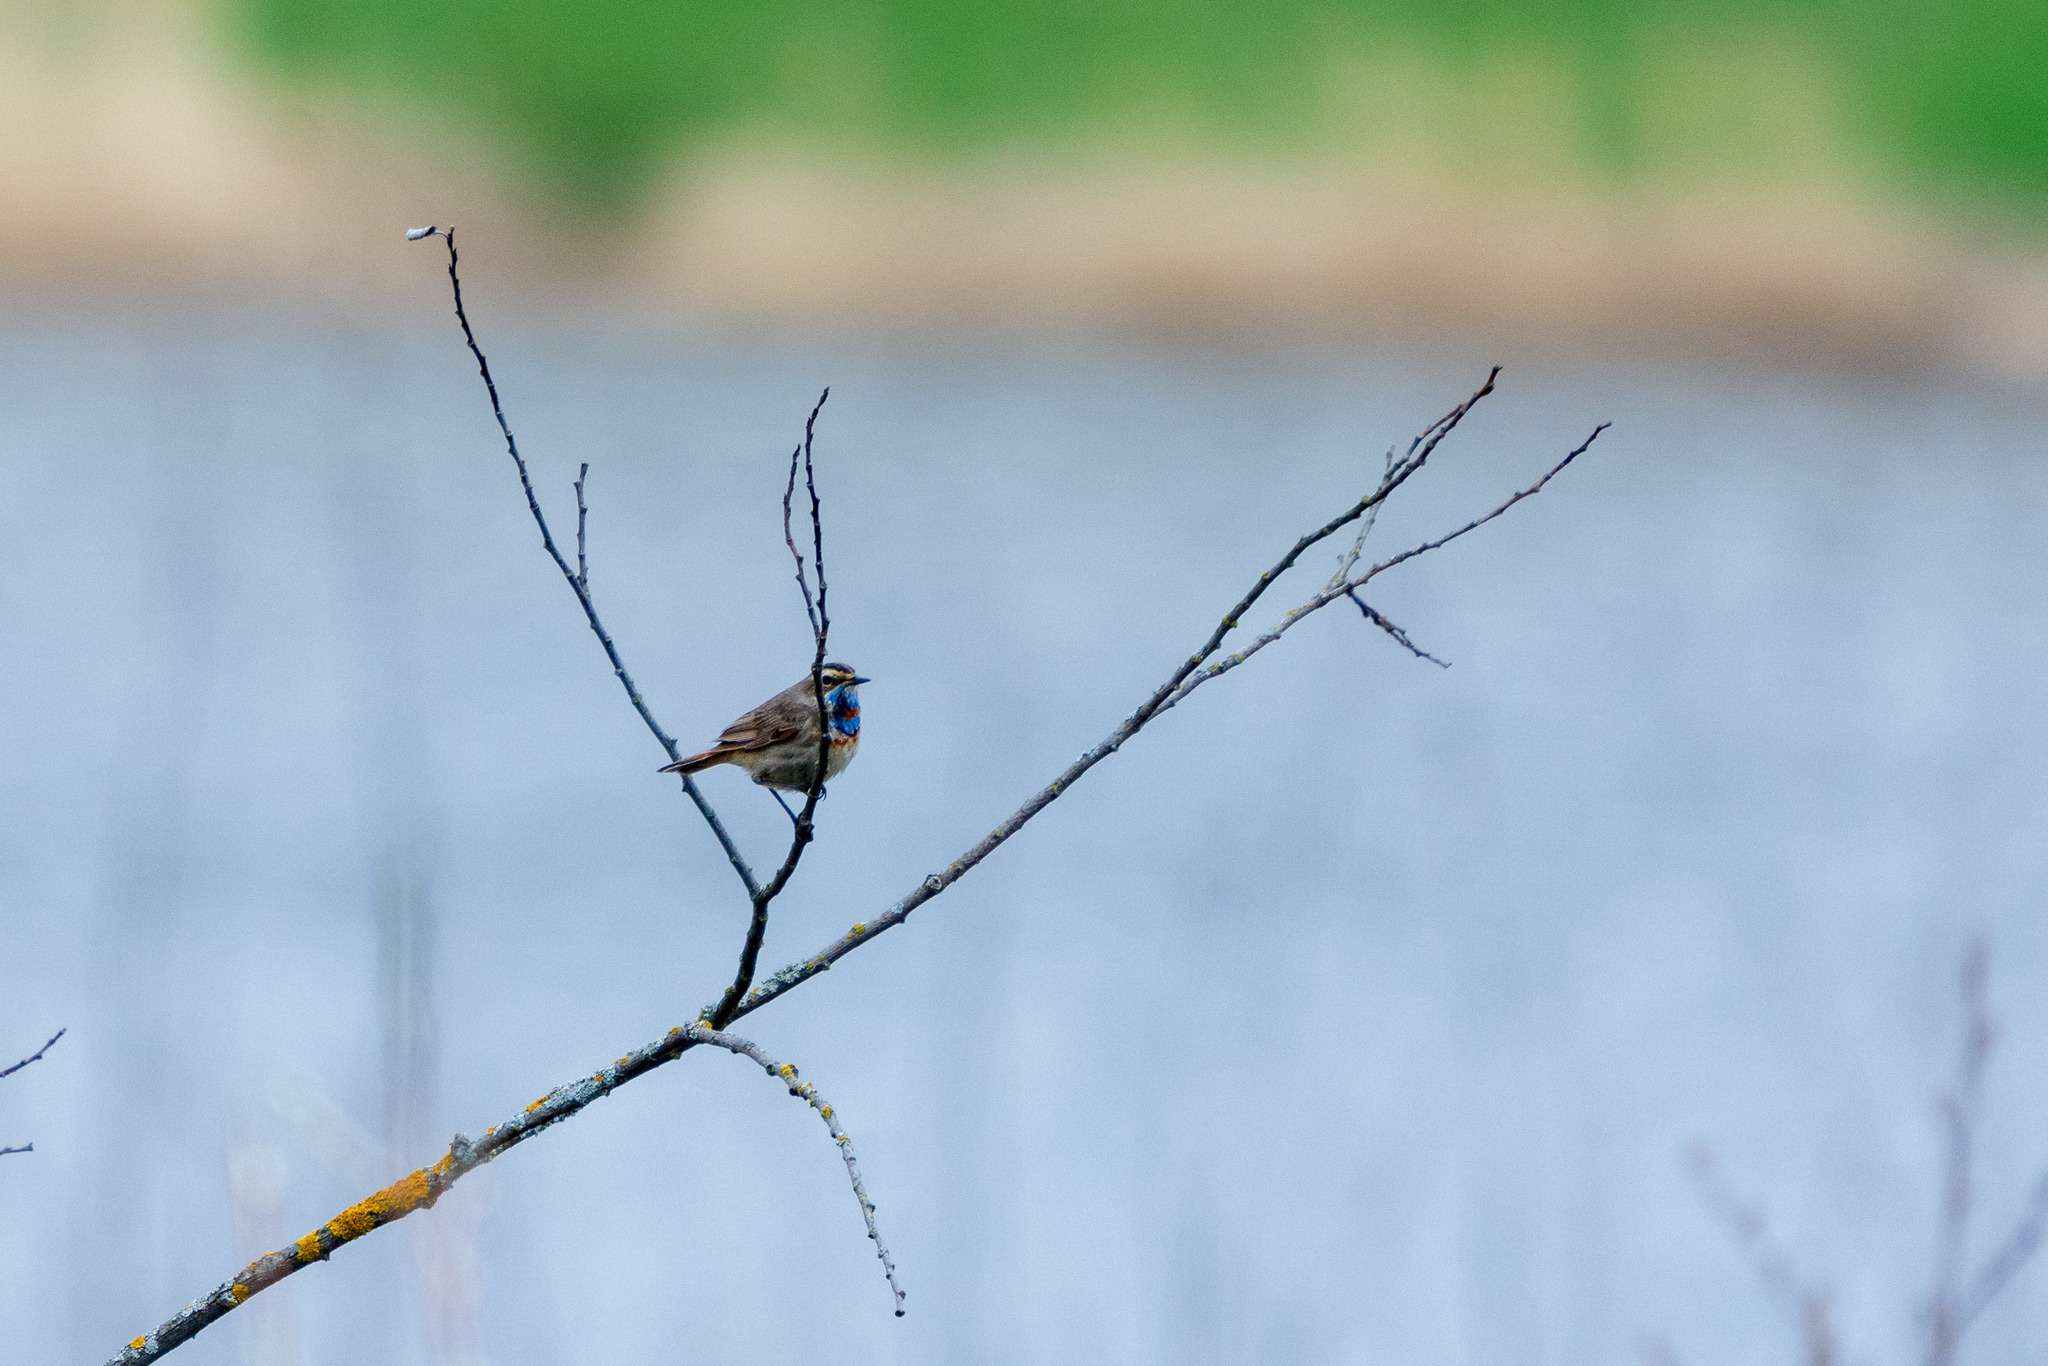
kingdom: Animalia
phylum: Chordata
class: Aves
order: Passeriformes
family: Muscicapidae
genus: Luscinia
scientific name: Luscinia svecica
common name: Bluethroat
